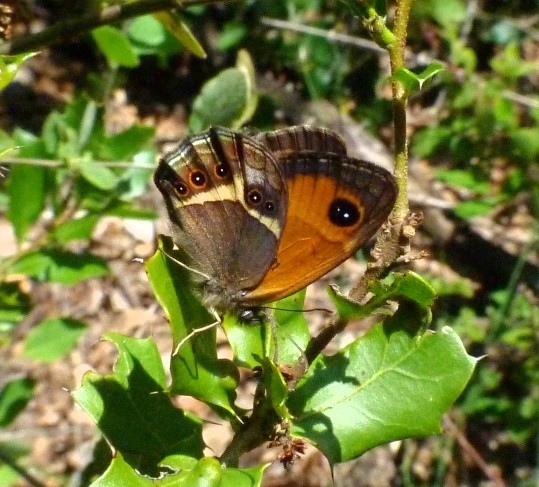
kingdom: Animalia
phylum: Arthropoda
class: Insecta
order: Lepidoptera
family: Nymphalidae
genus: Pyronia
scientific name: Pyronia bathseba
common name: Spanish gatekeeper
